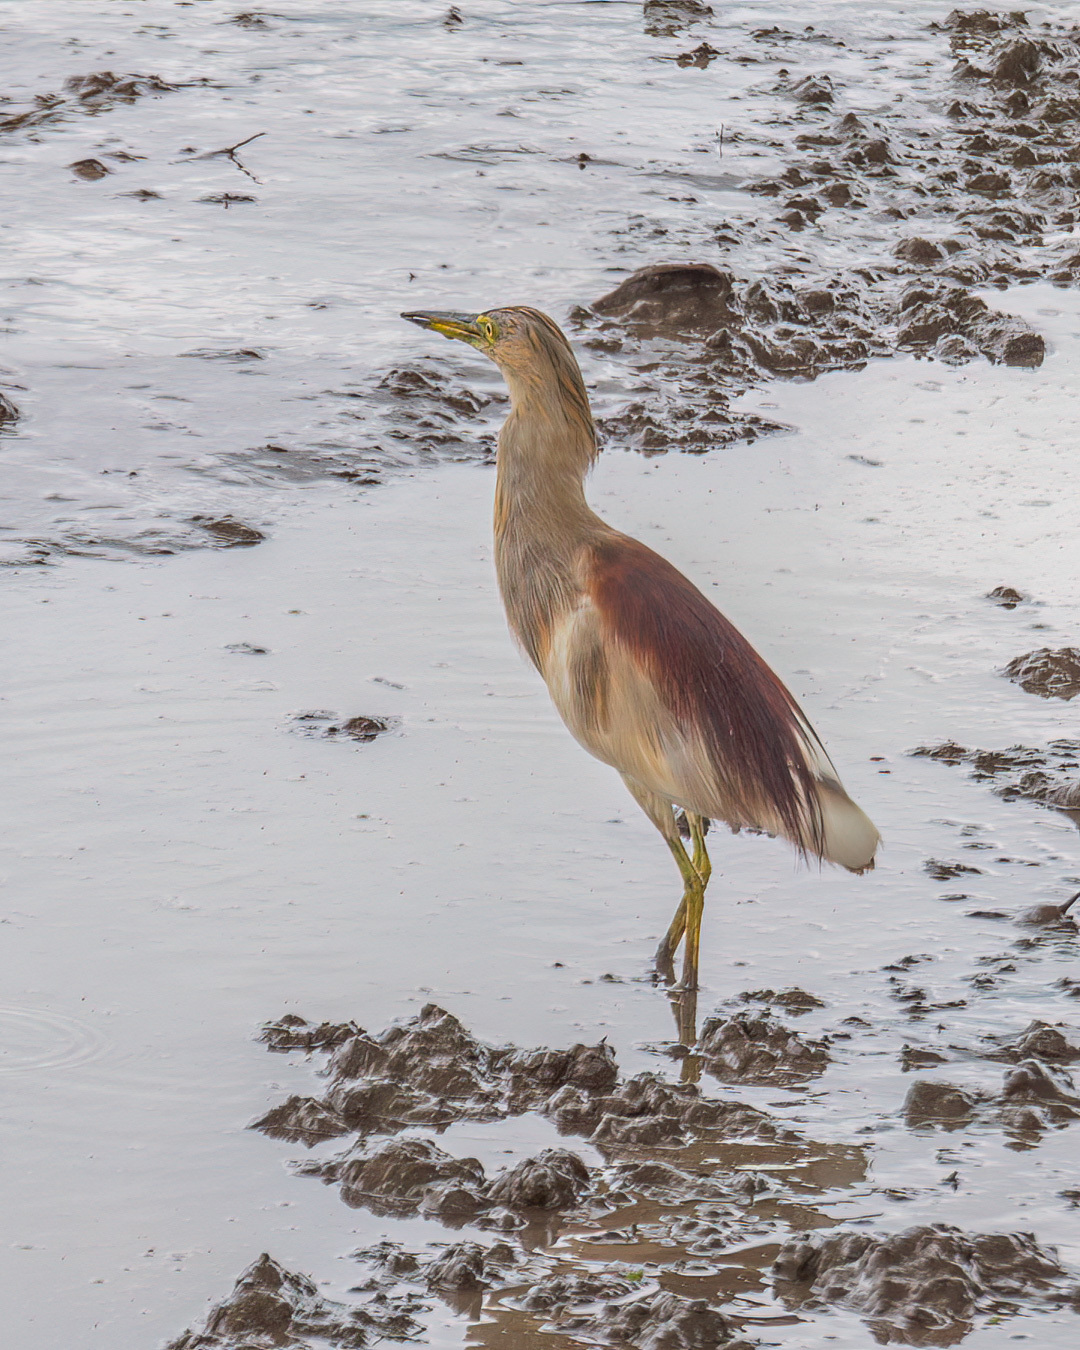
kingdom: Animalia
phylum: Chordata
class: Aves
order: Pelecaniformes
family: Ardeidae
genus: Ardeola
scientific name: Ardeola grayii
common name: Indian pond heron
